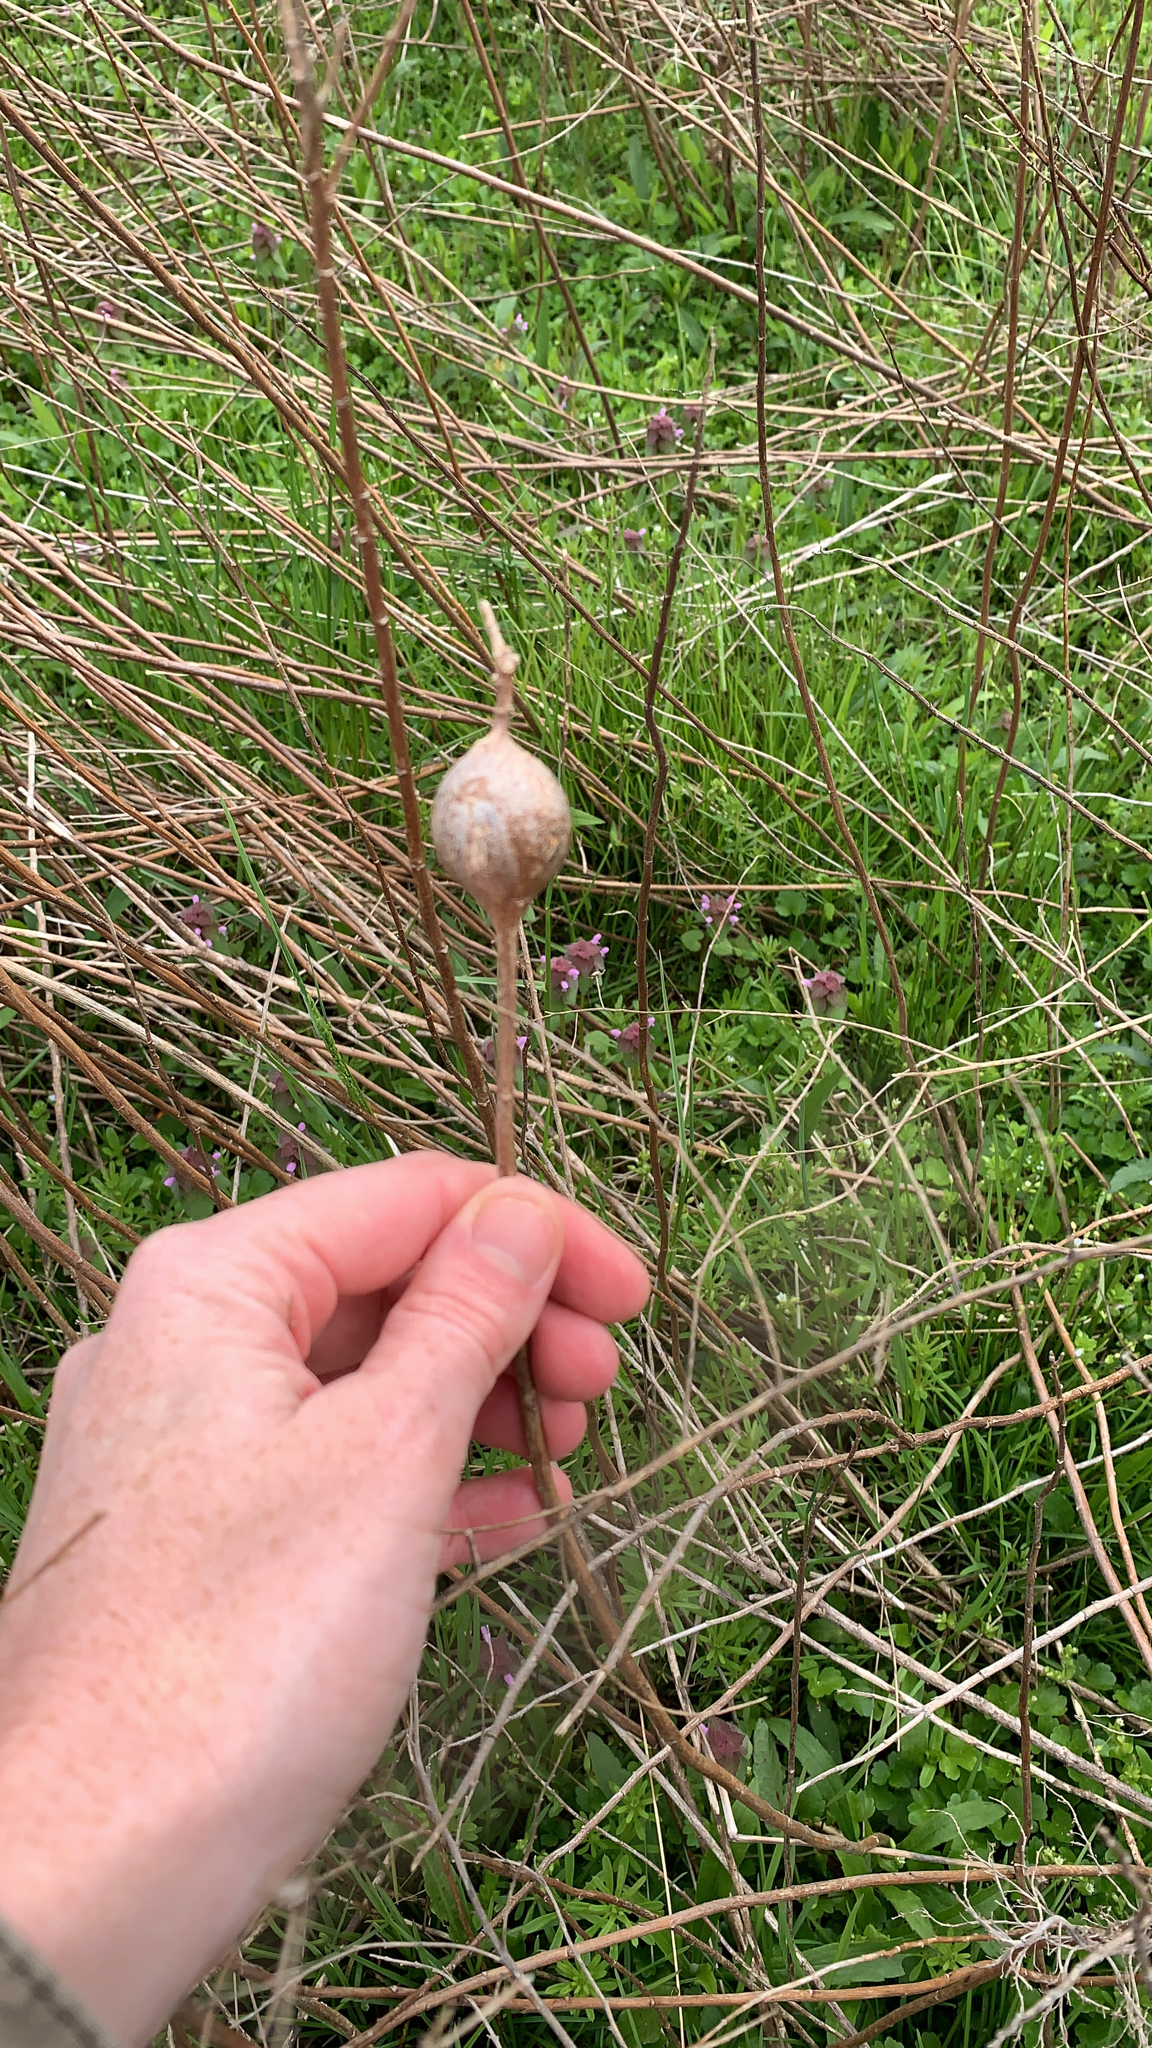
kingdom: Animalia
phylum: Arthropoda
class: Insecta
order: Diptera
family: Tephritidae
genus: Eurosta
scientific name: Eurosta solidaginis
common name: Goldenrod gall fly
